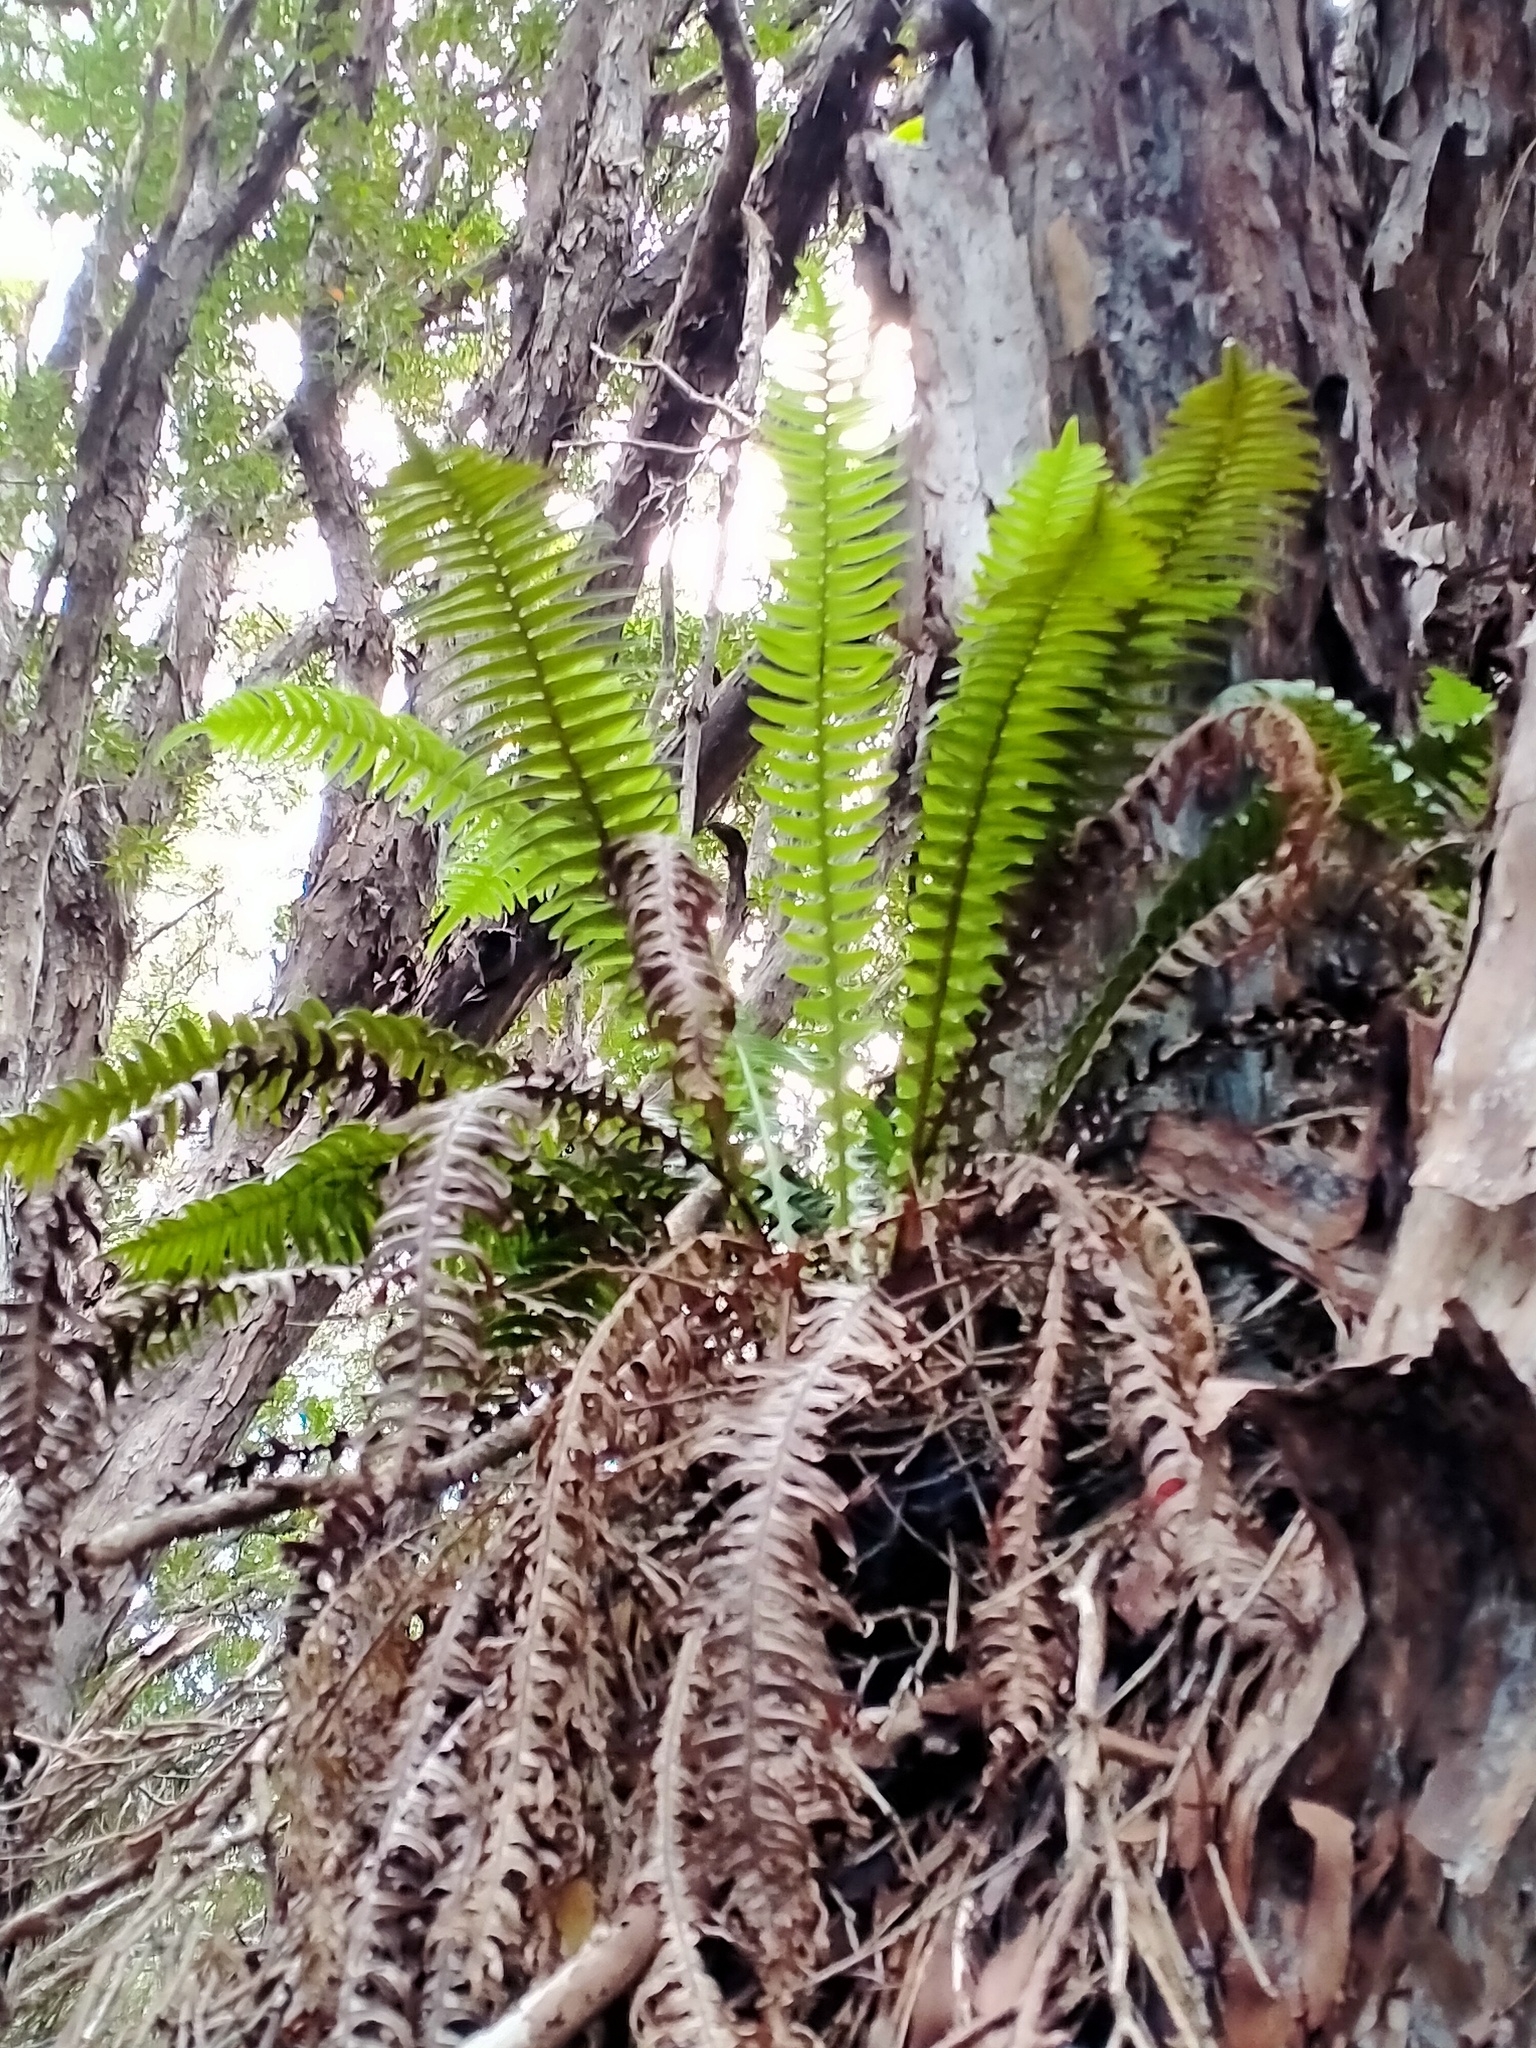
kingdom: Plantae
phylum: Tracheophyta
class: Polypodiopsida
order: Polypodiales
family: Blechnaceae
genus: Austroblechnum
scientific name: Austroblechnum durum
